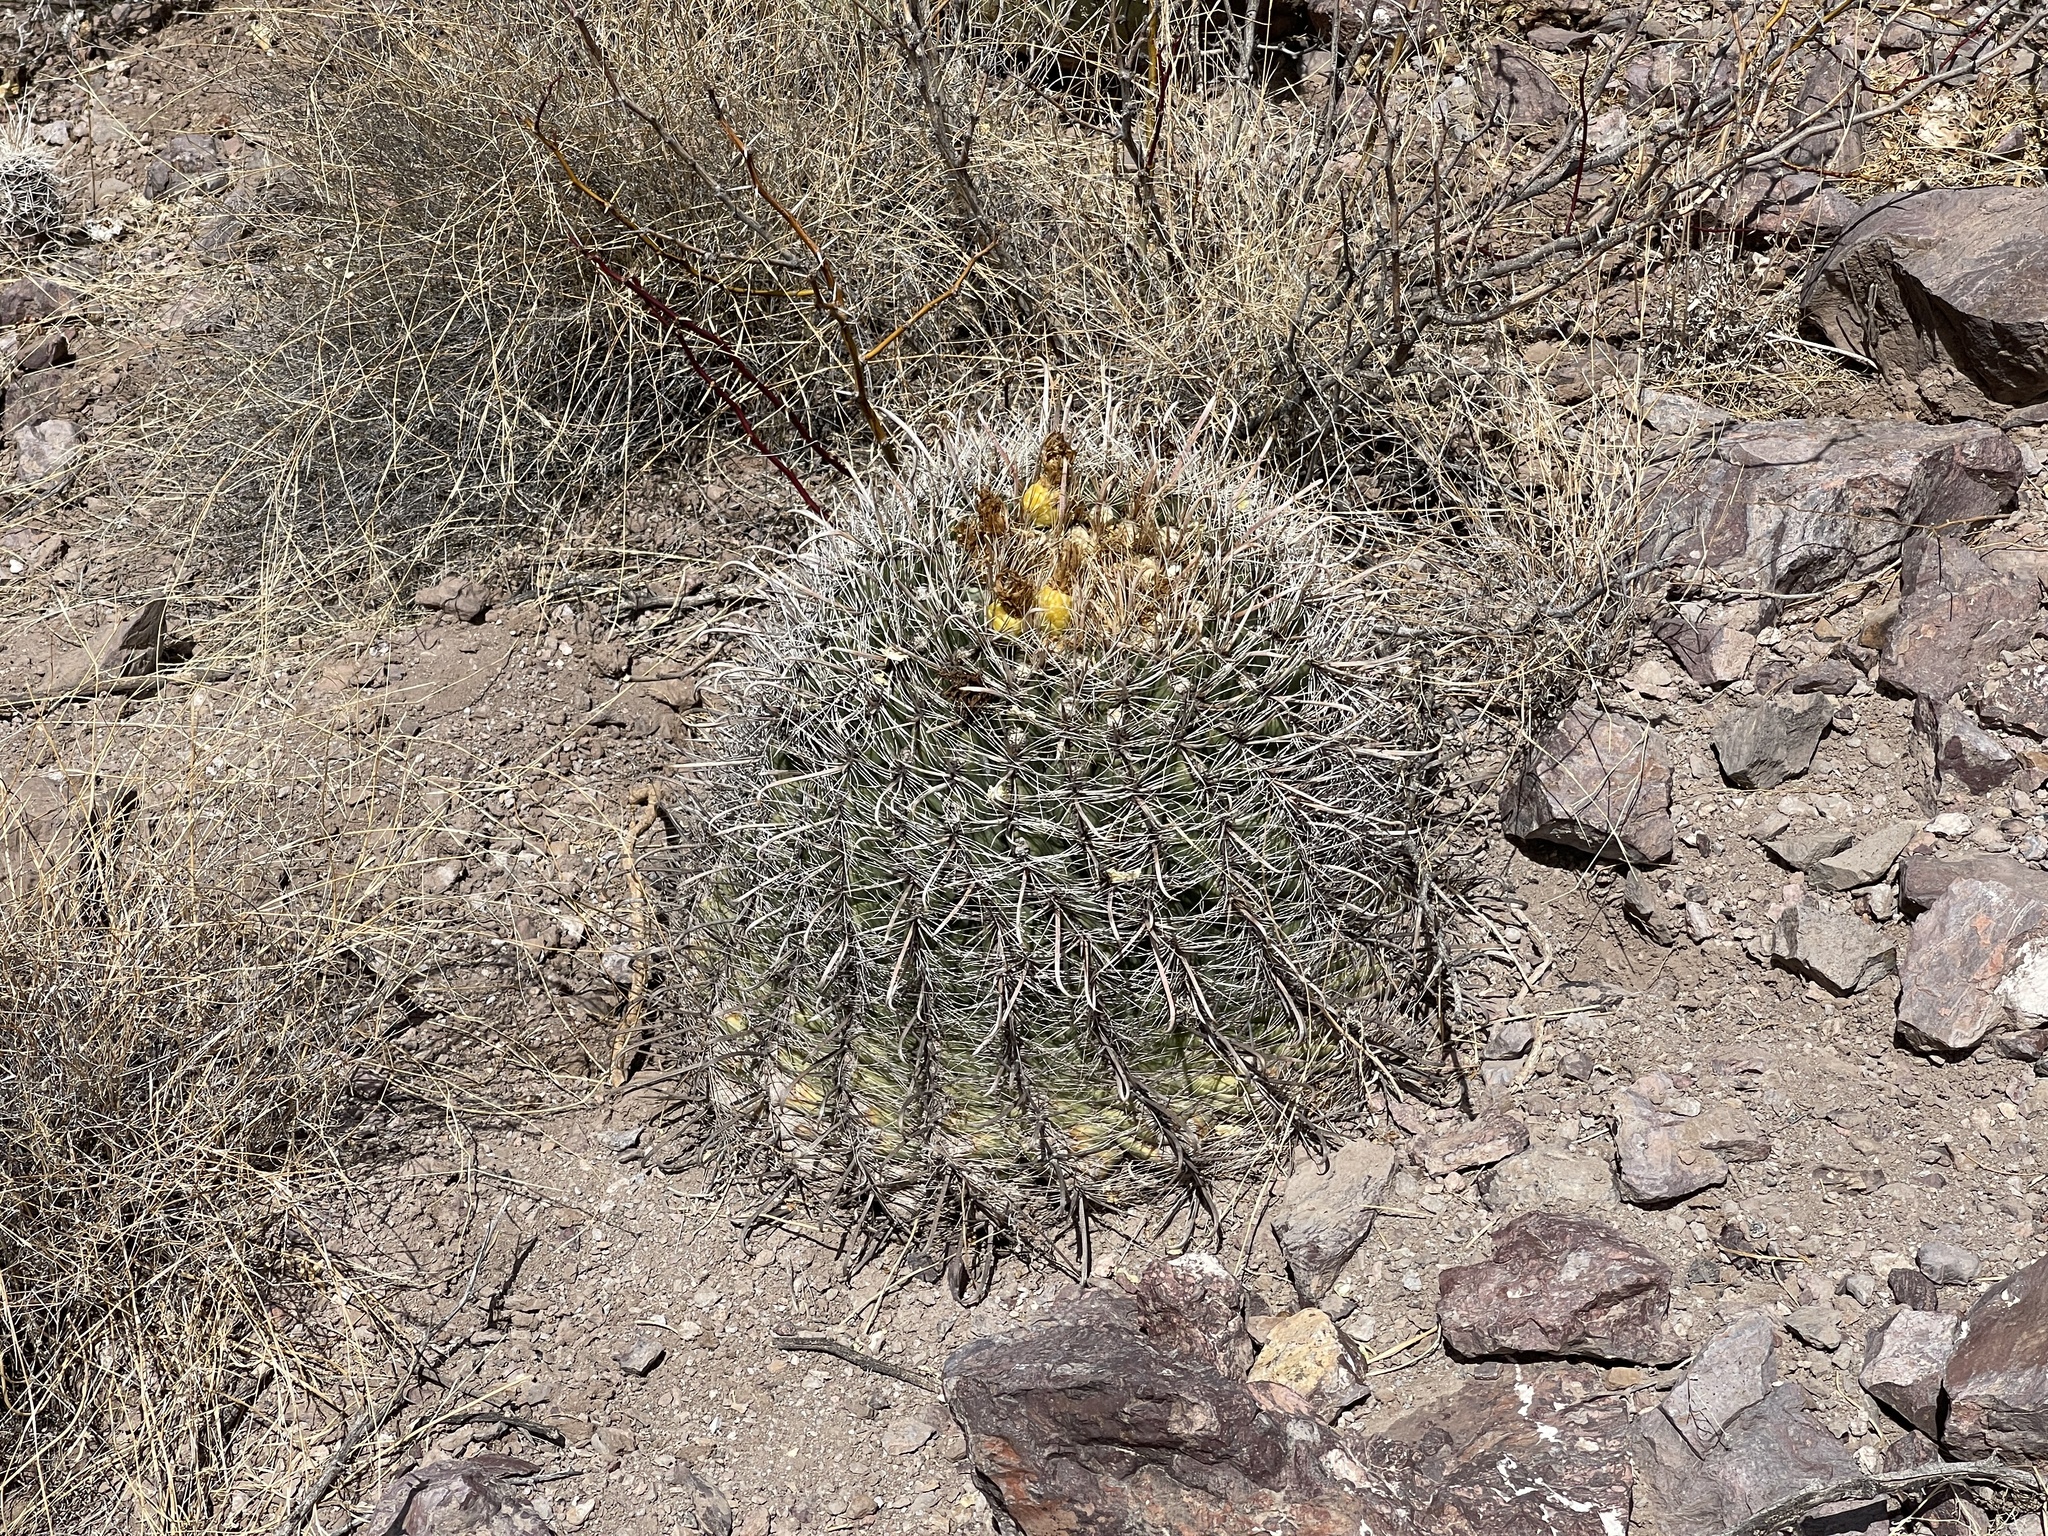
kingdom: Plantae
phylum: Tracheophyta
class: Magnoliopsida
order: Caryophyllales
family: Cactaceae
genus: Ferocactus
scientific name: Ferocactus wislizeni
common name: Candy barrel cactus
